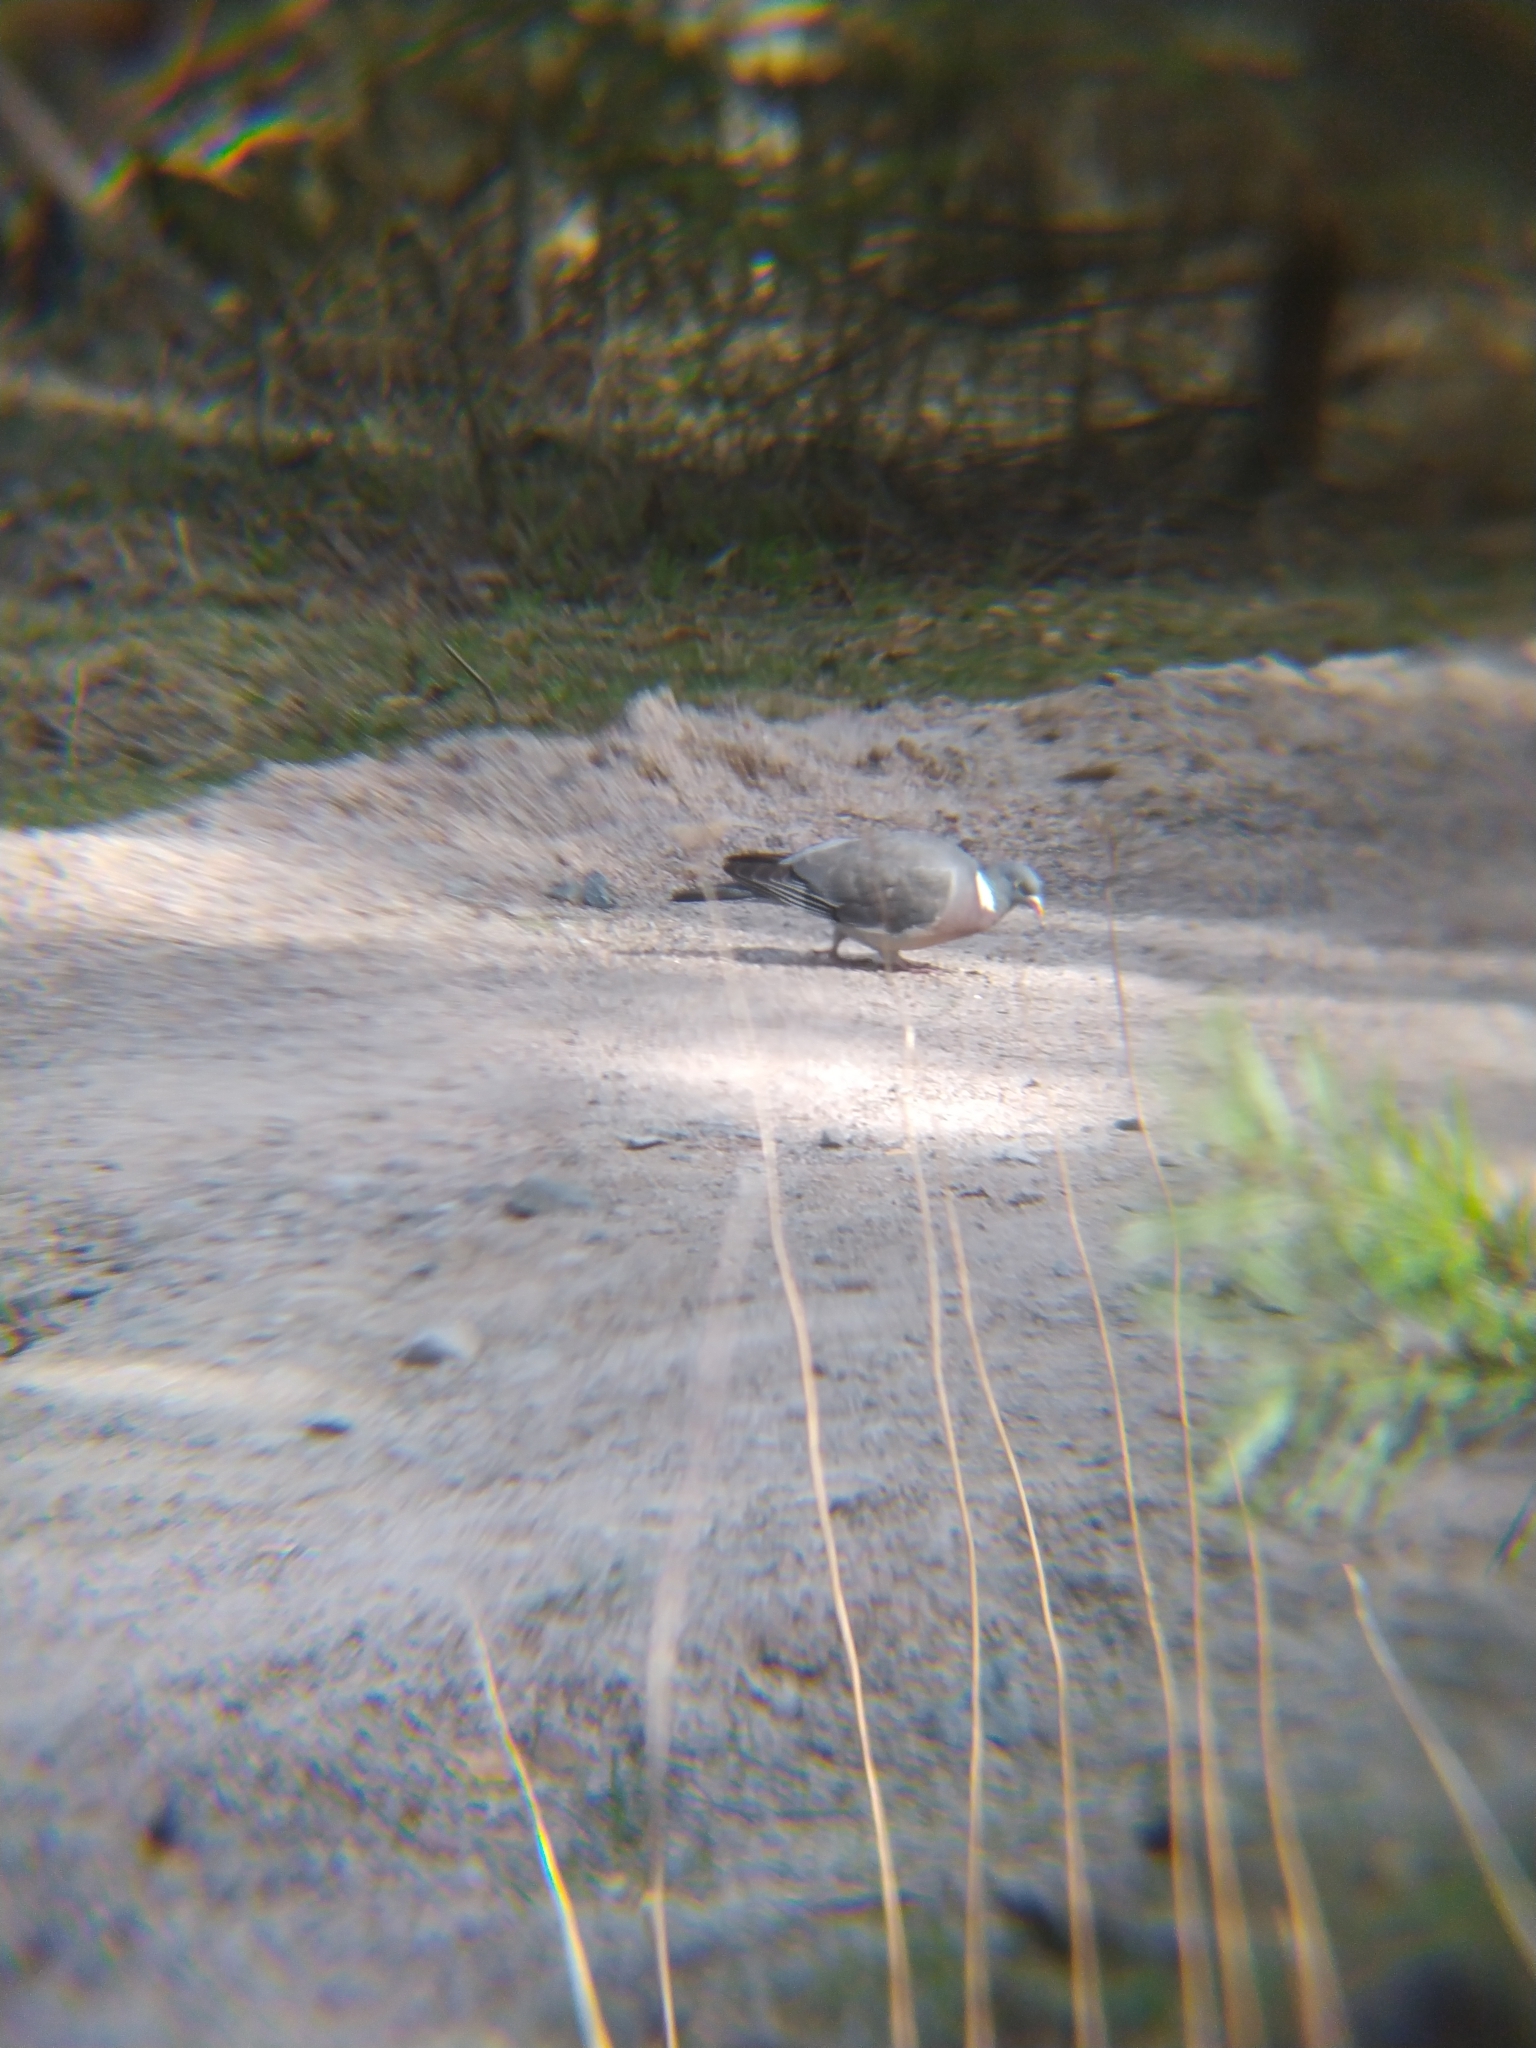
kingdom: Animalia
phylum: Chordata
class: Aves
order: Columbiformes
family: Columbidae
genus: Columba
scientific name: Columba palumbus
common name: Common wood pigeon
